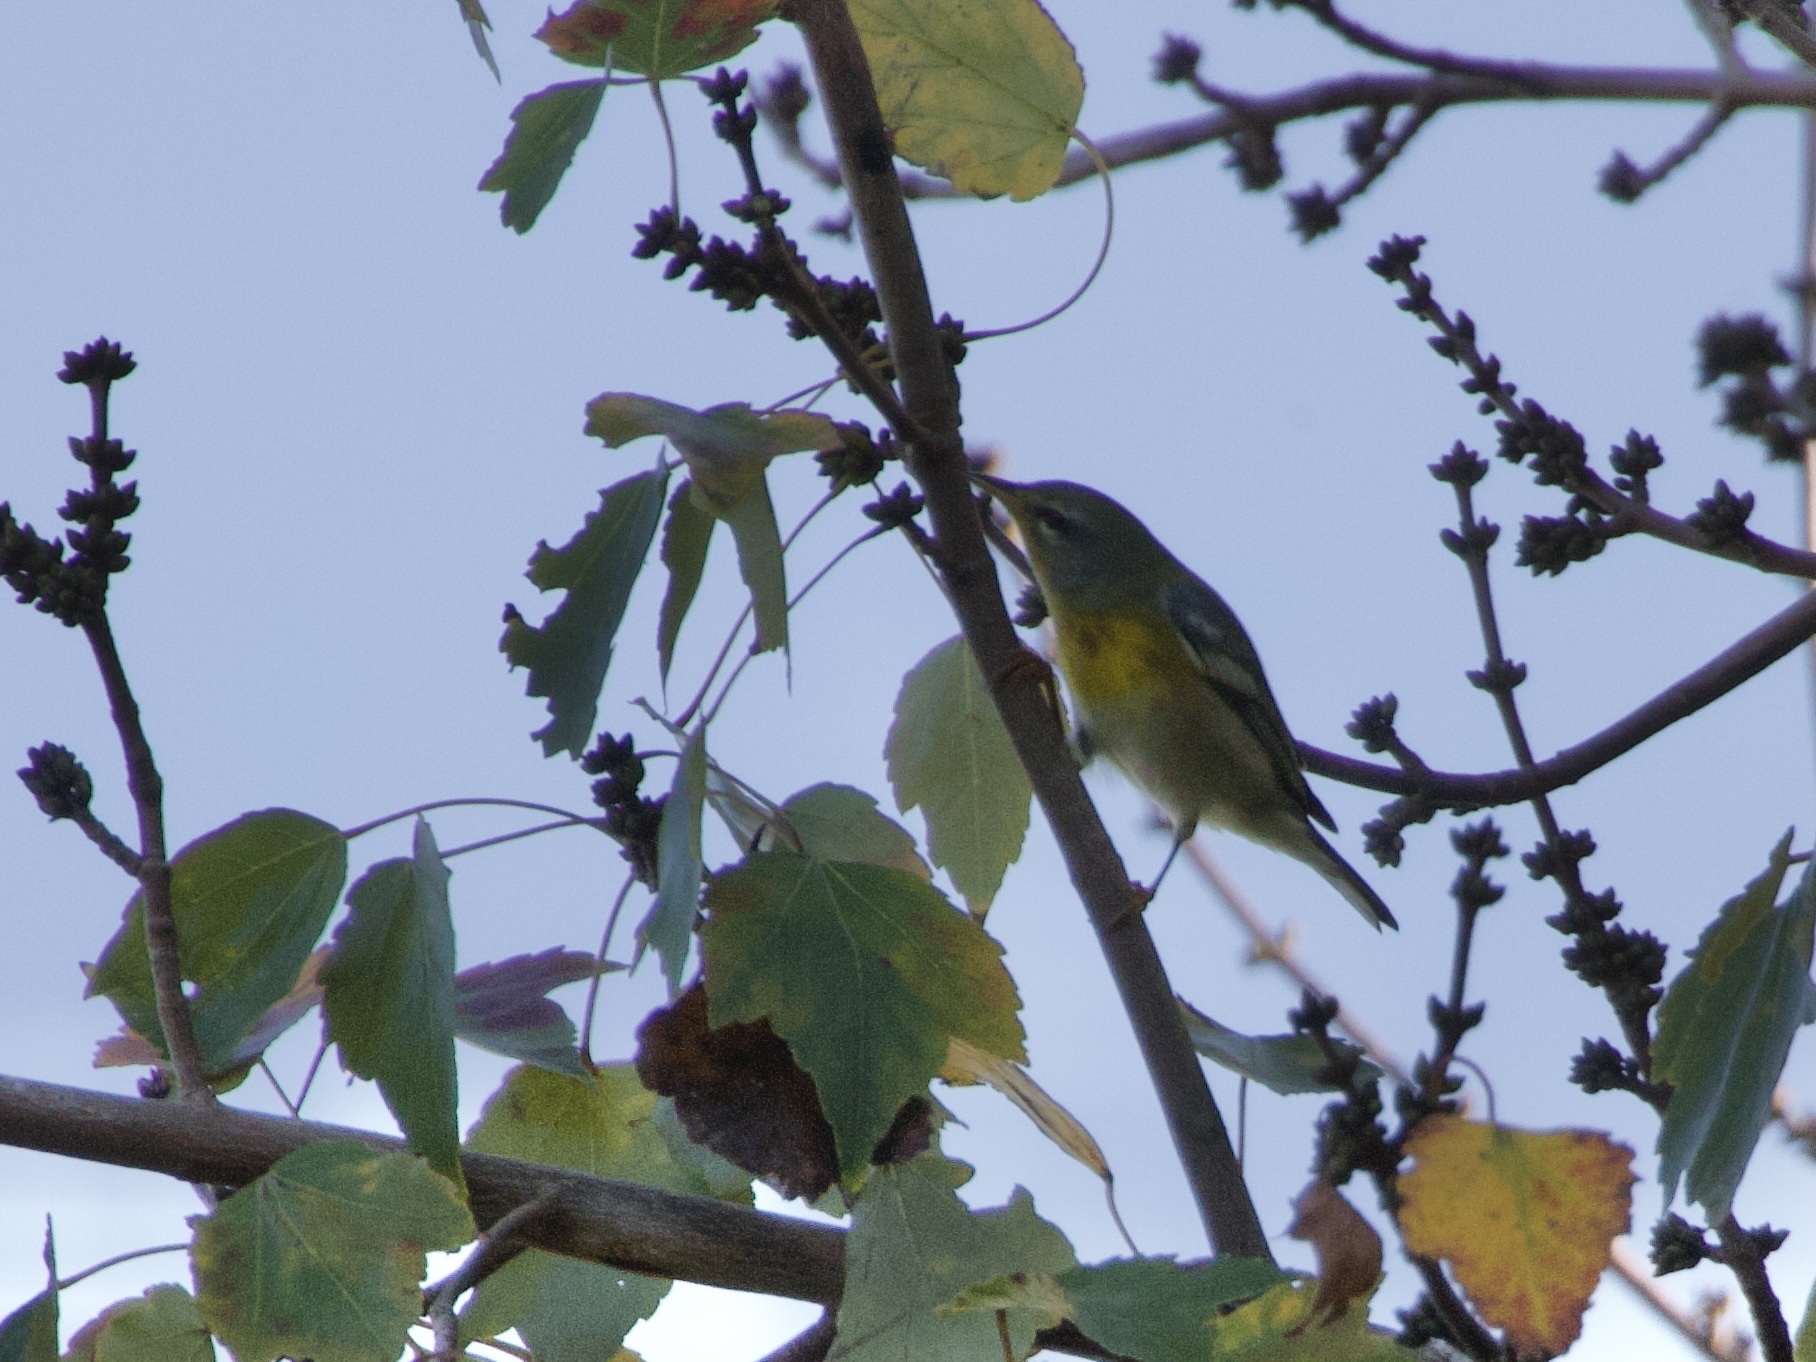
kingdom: Animalia
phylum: Chordata
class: Aves
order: Passeriformes
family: Parulidae
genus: Setophaga
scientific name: Setophaga americana
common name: Northern parula
